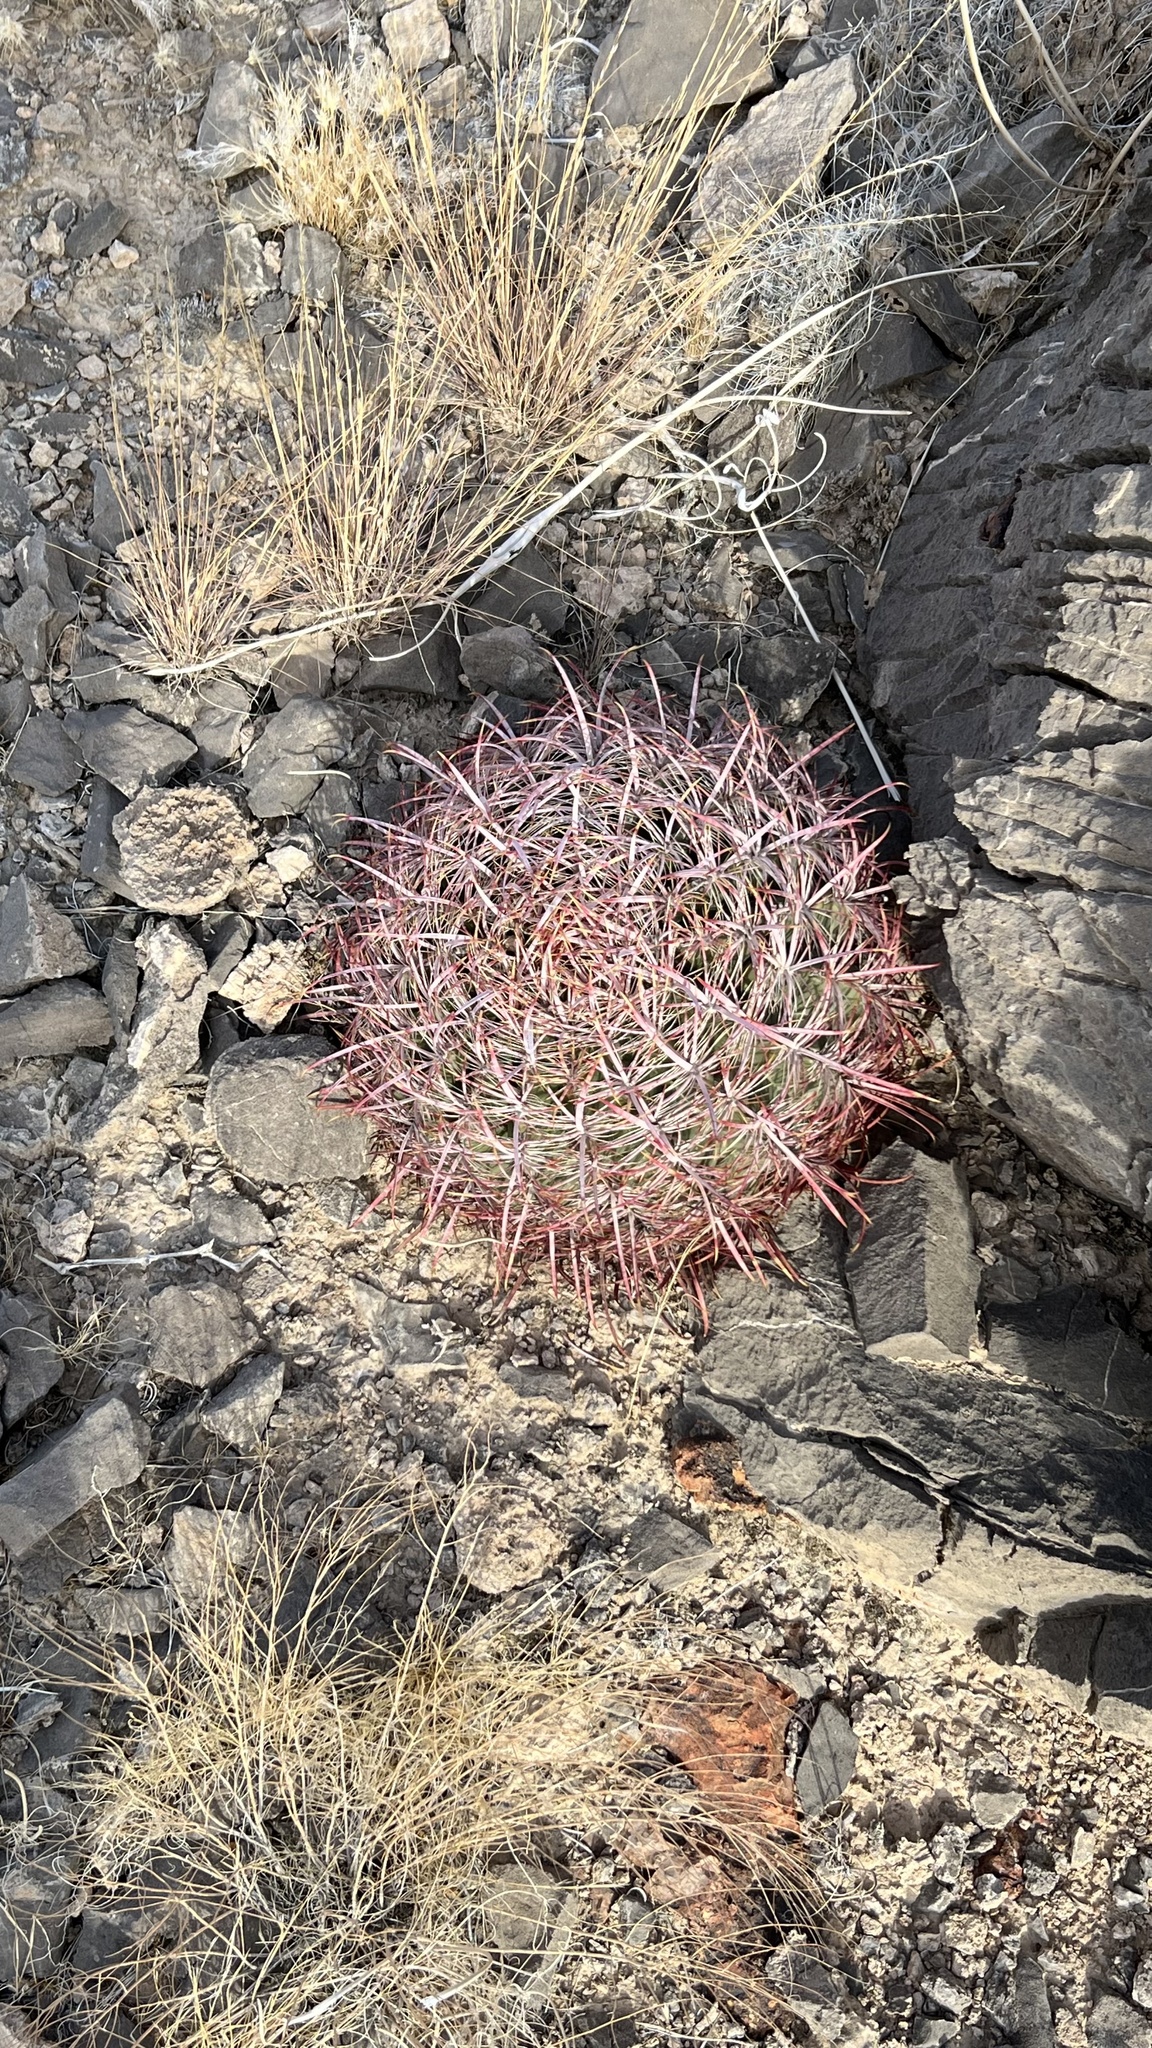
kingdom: Plantae
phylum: Tracheophyta
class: Magnoliopsida
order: Caryophyllales
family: Cactaceae
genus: Ferocactus
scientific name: Ferocactus cylindraceus
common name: California barrel cactus
